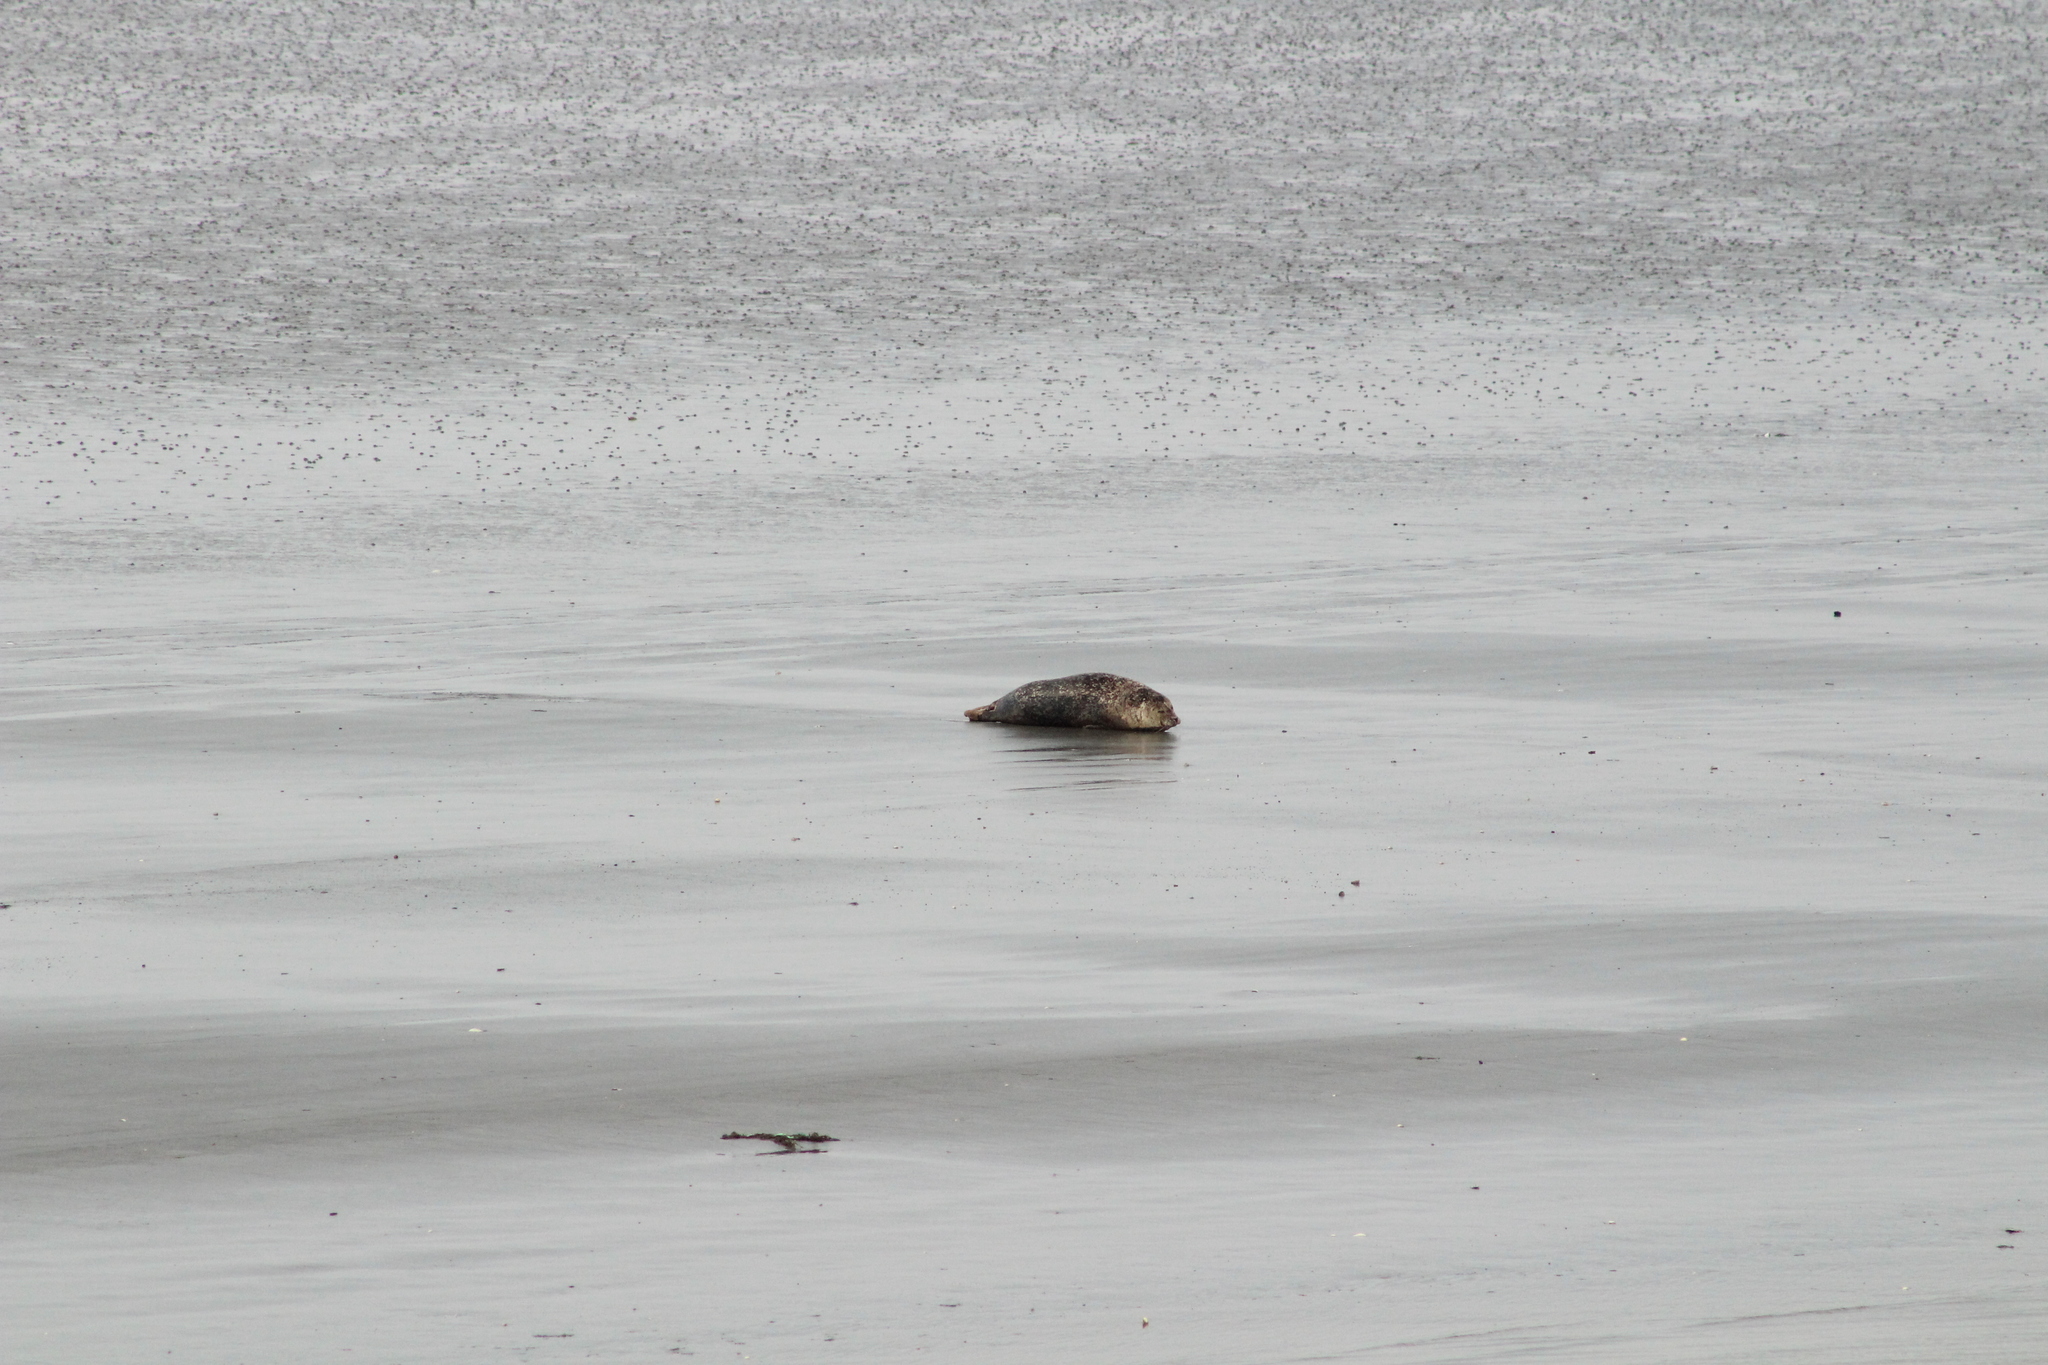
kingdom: Animalia
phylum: Chordata
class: Mammalia
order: Carnivora
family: Phocidae
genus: Phoca
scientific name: Phoca vitulina
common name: Harbor seal
